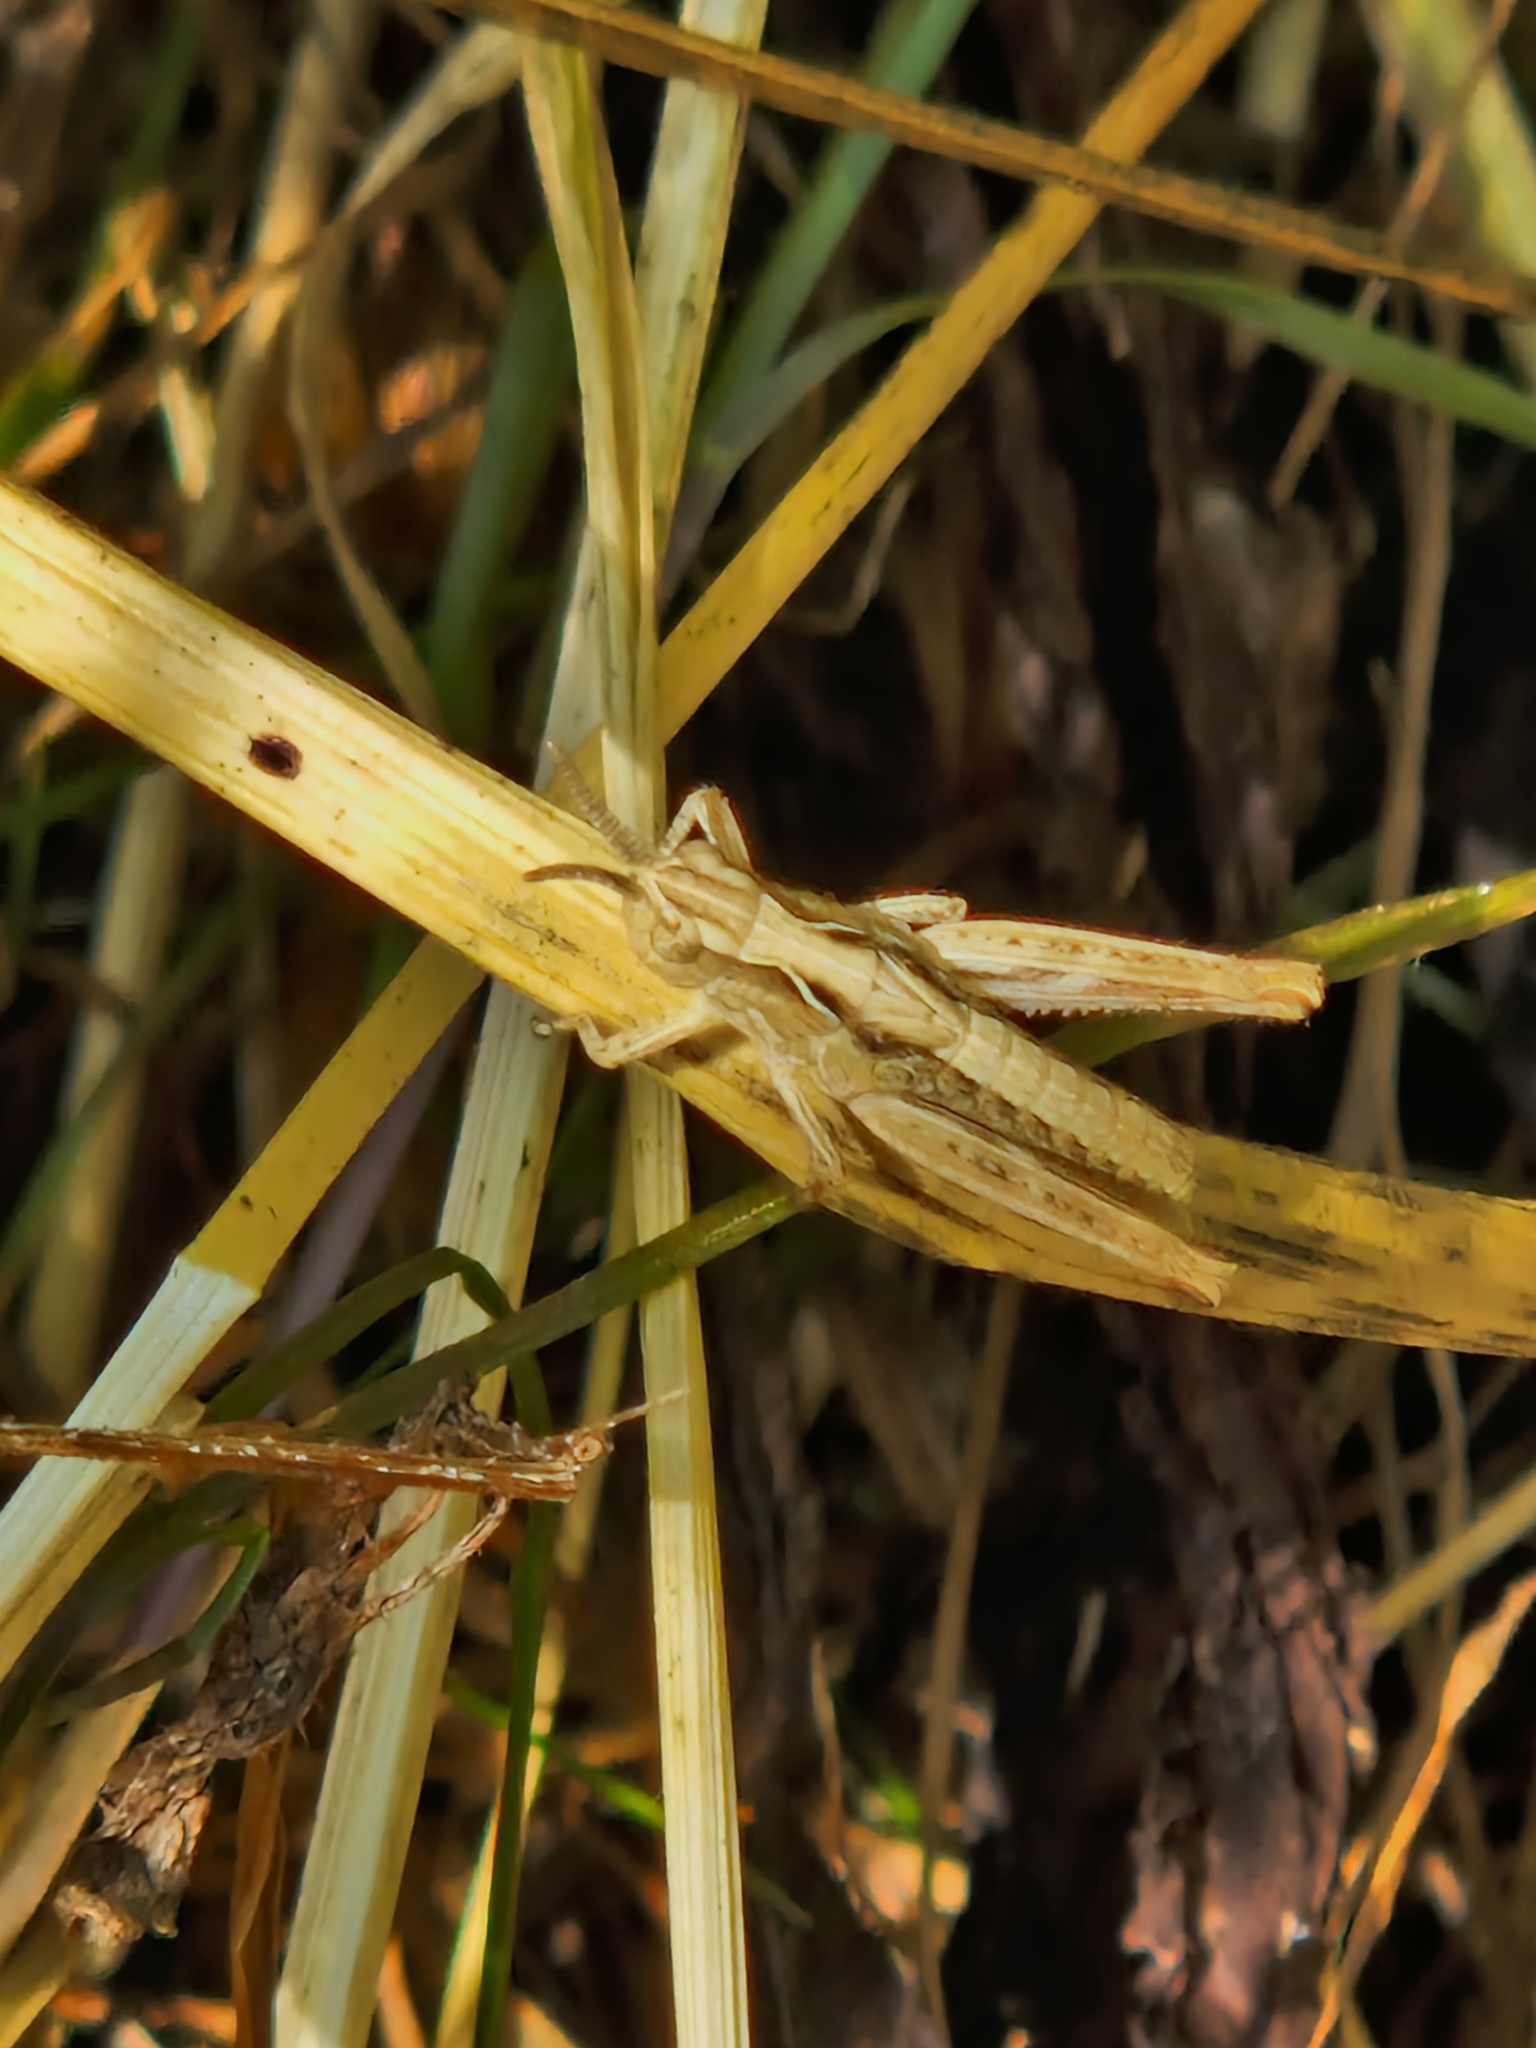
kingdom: Animalia
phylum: Arthropoda
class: Insecta
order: Orthoptera
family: Acrididae
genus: Chorthippus
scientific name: Chorthippus brunneus
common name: Field grasshopper
